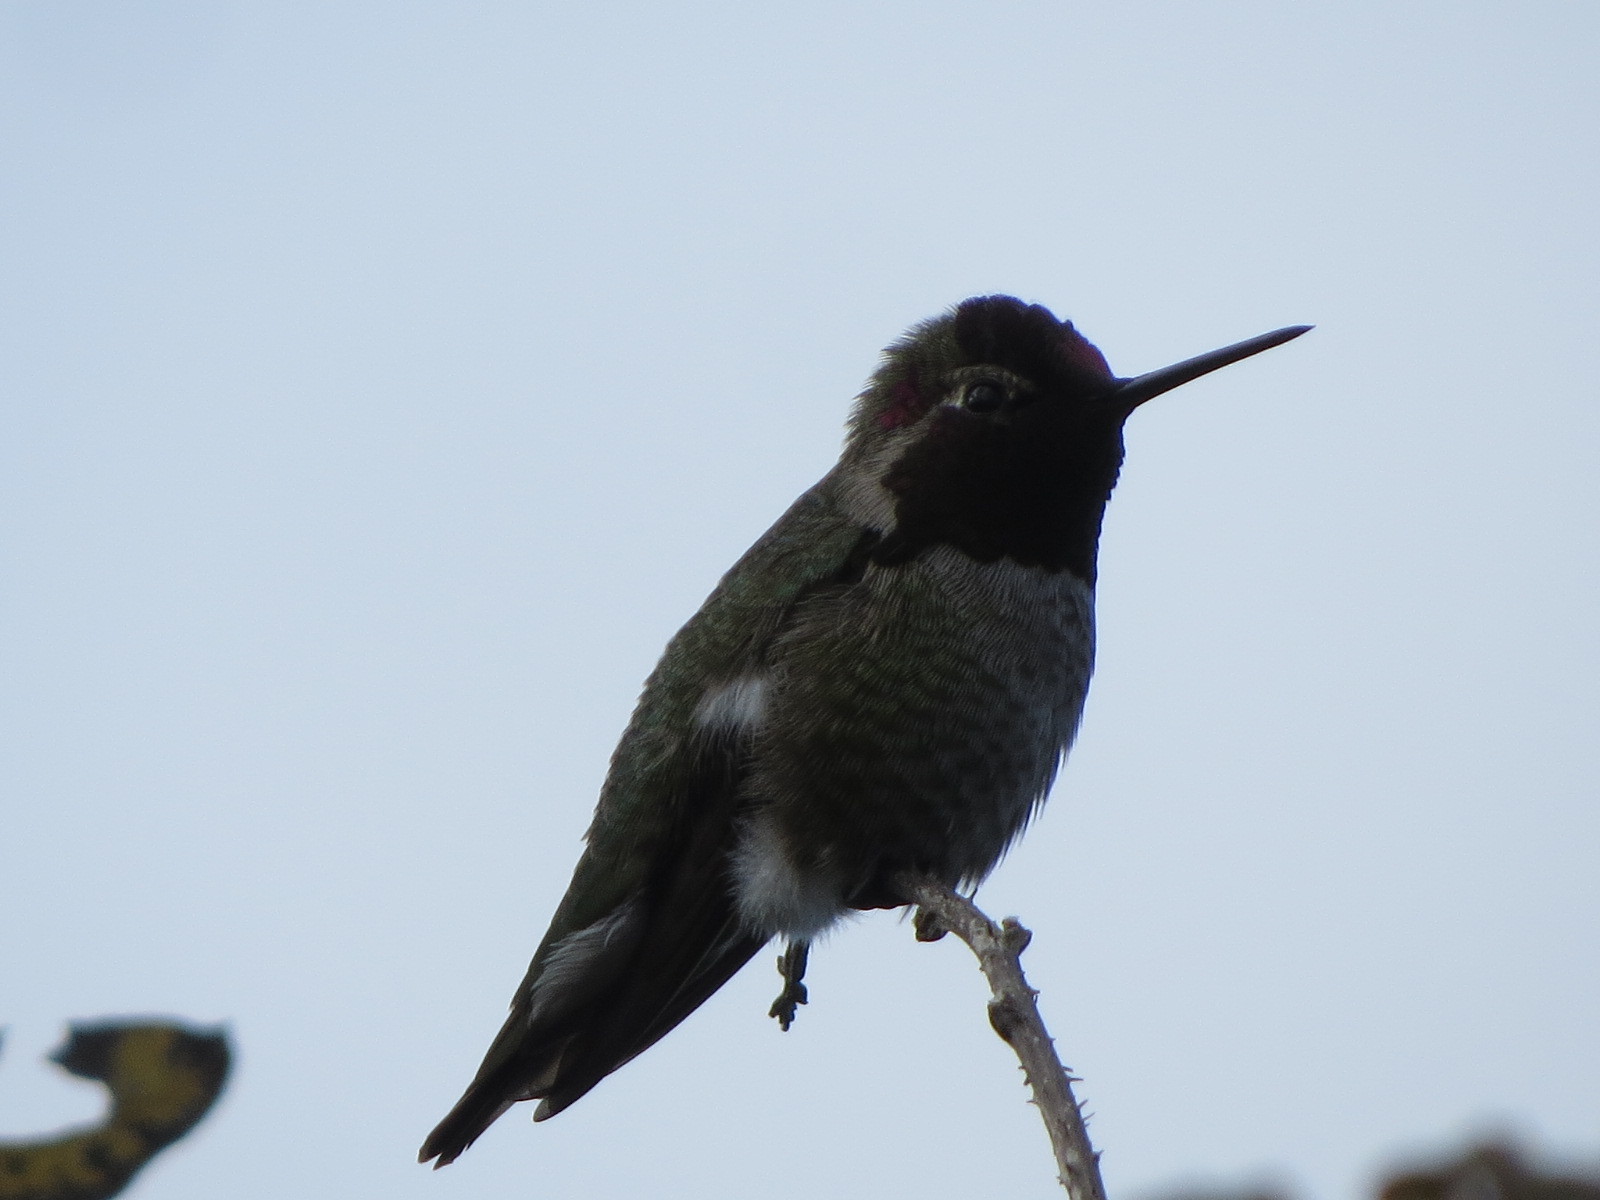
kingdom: Animalia
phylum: Chordata
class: Aves
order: Apodiformes
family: Trochilidae
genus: Calypte
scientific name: Calypte anna
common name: Anna's hummingbird
